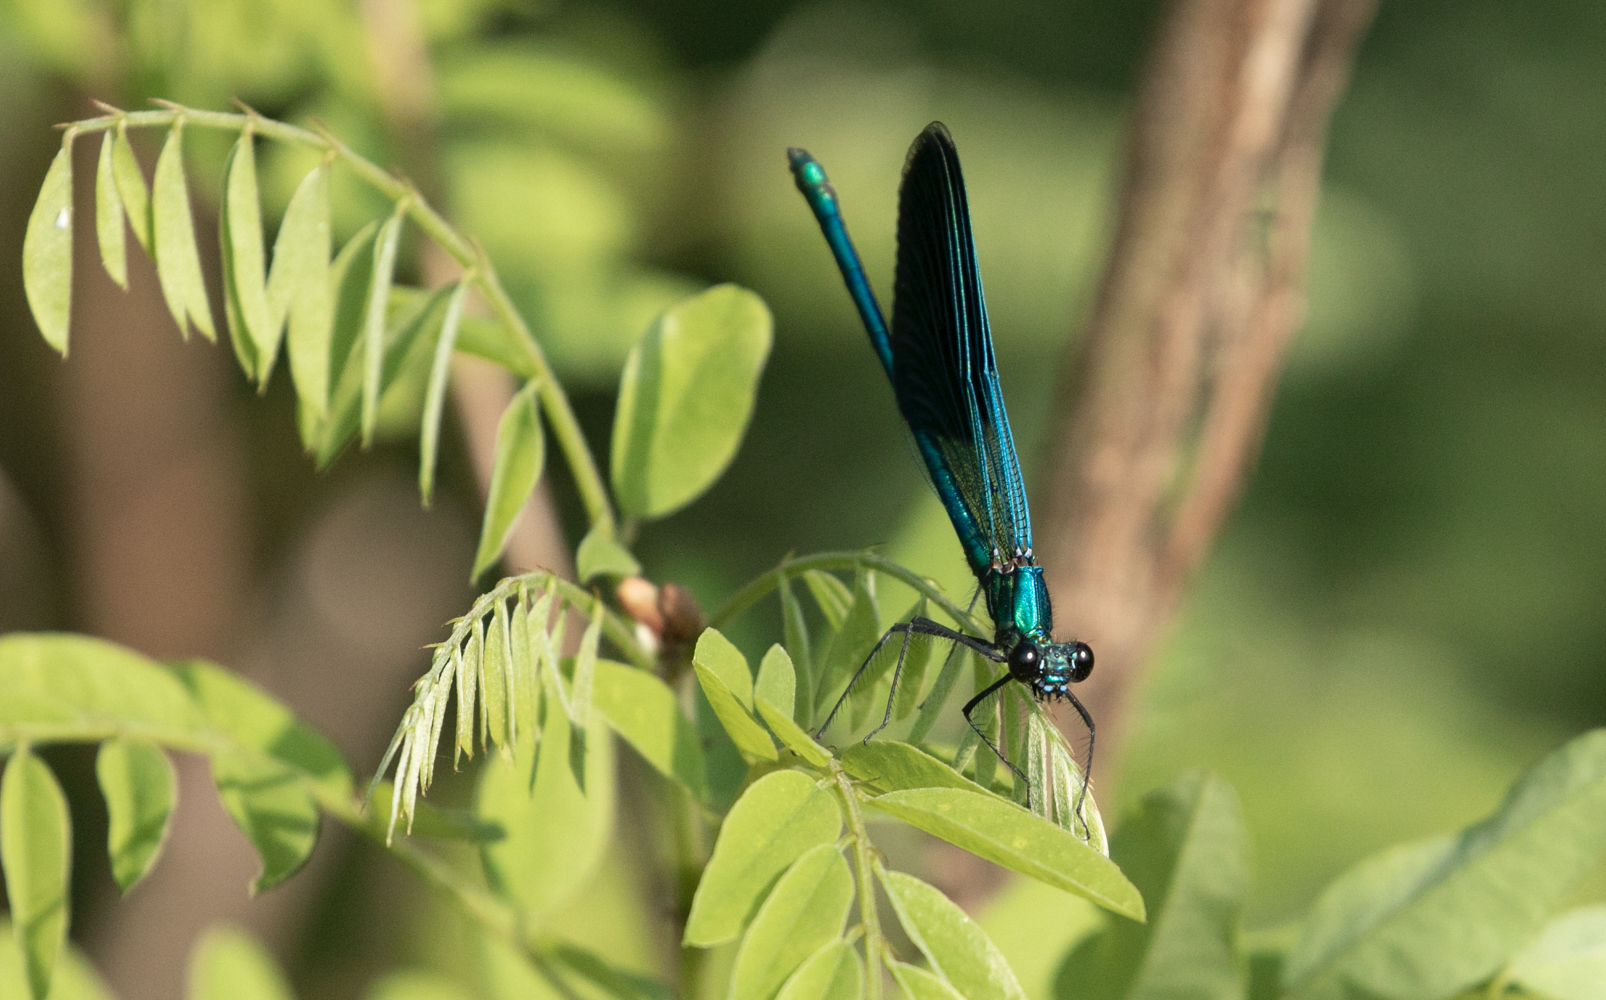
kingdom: Animalia
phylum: Arthropoda
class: Insecta
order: Odonata
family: Calopterygidae
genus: Calopteryx
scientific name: Calopteryx splendens
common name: Banded demoiselle
